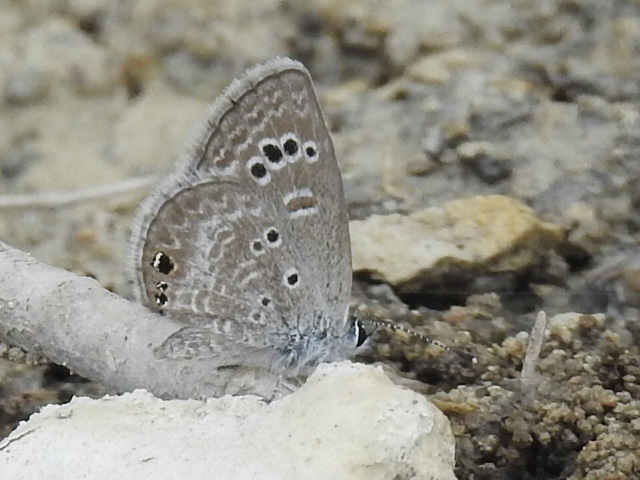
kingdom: Animalia
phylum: Arthropoda
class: Insecta
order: Lepidoptera
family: Lycaenidae
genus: Echinargus
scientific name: Echinargus isola
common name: Reakirt's blue
